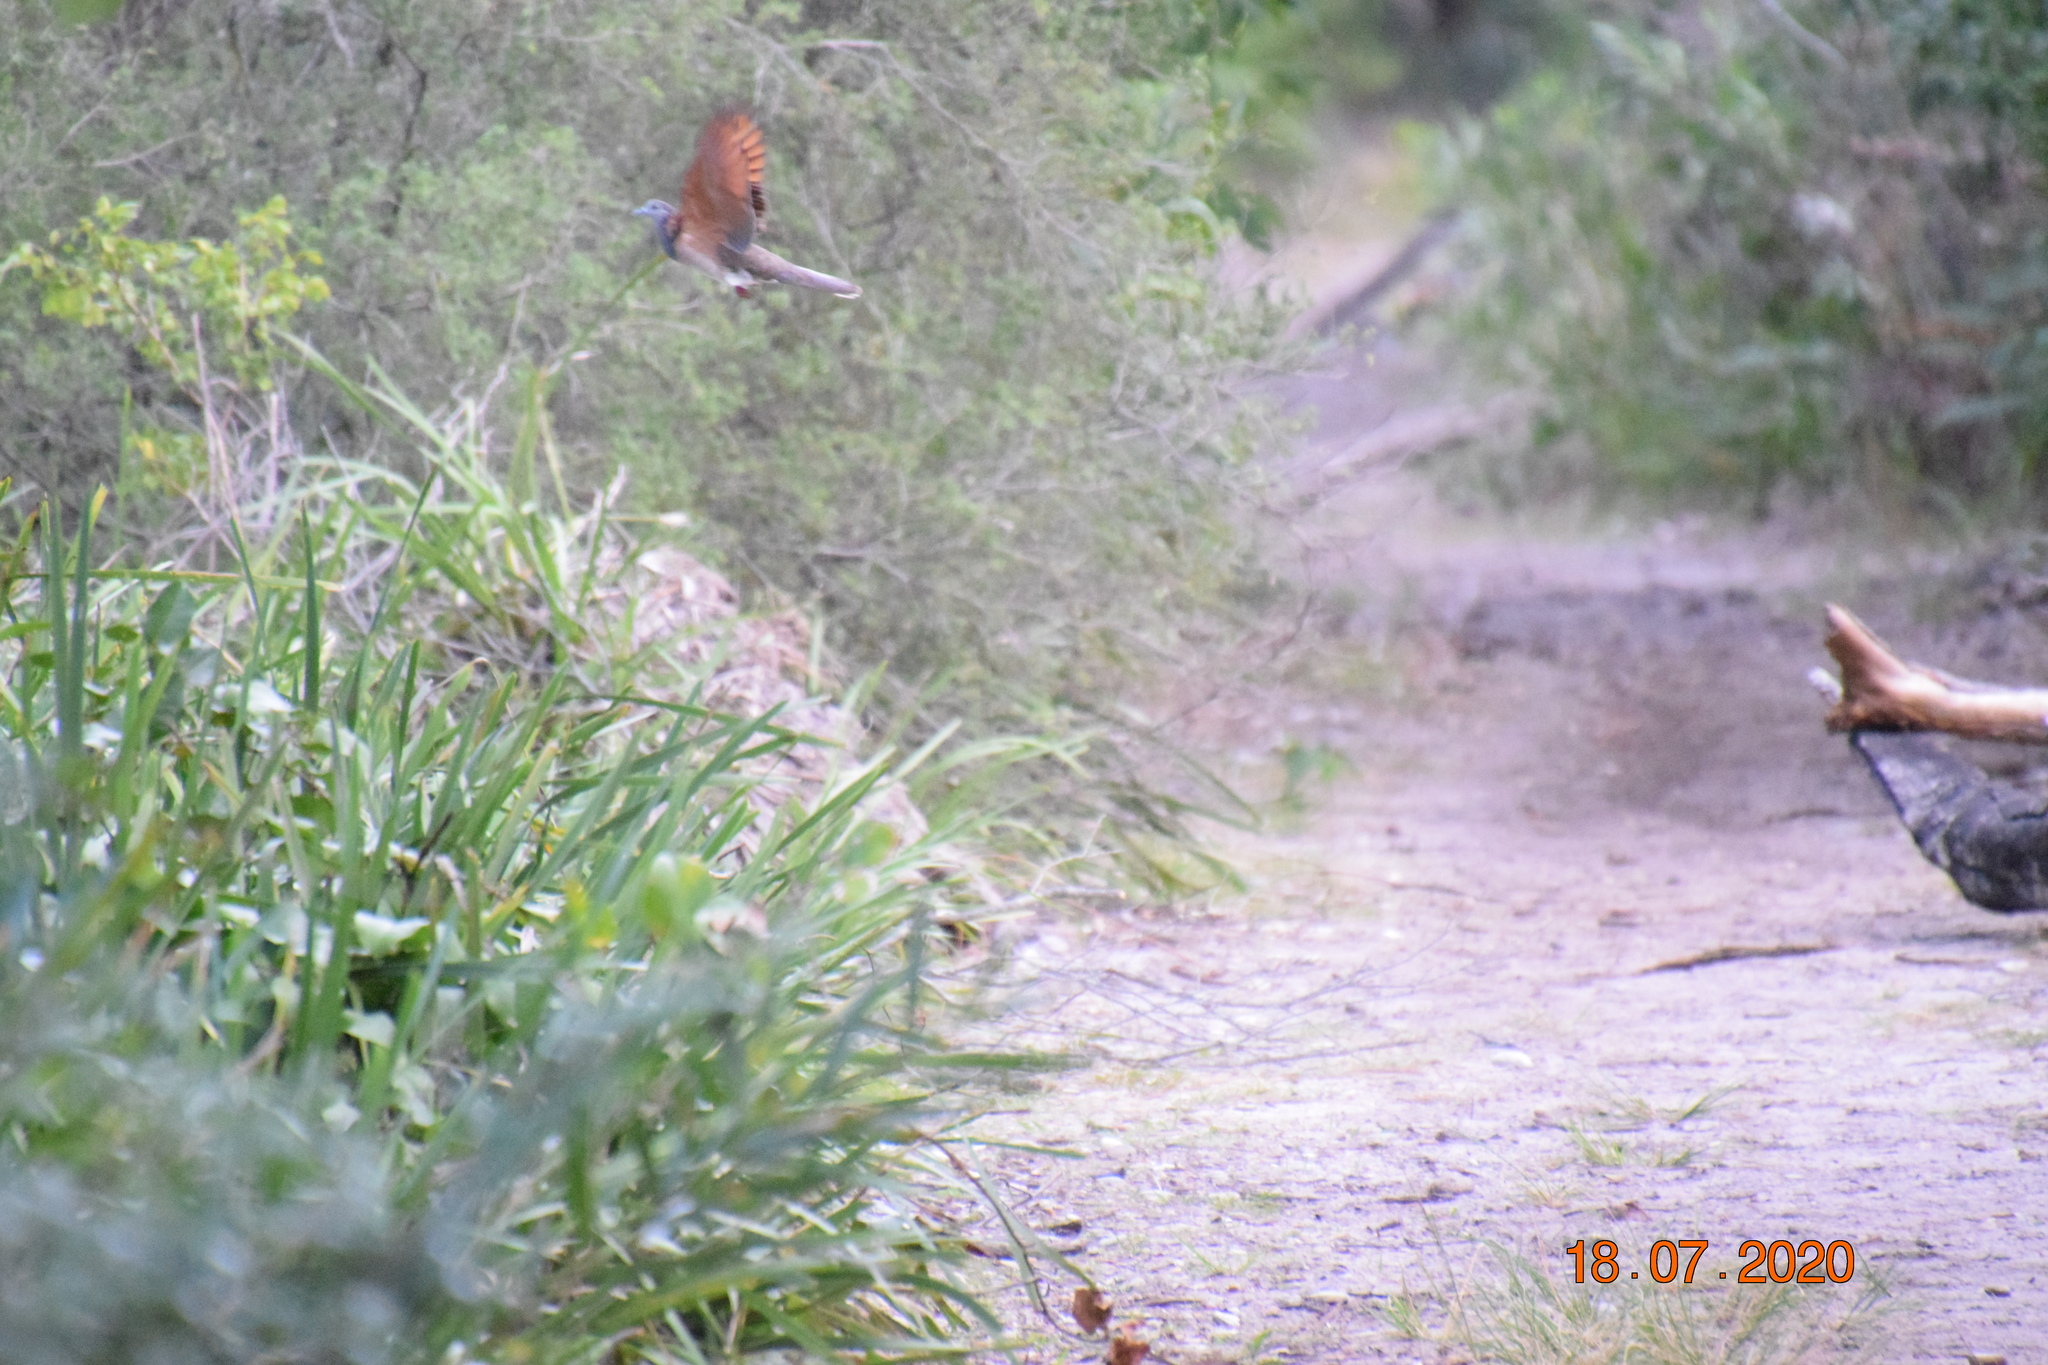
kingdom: Animalia
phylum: Chordata
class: Aves
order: Columbiformes
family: Columbidae
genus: Geopelia
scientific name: Geopelia humeralis
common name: Bar-shouldered dove
